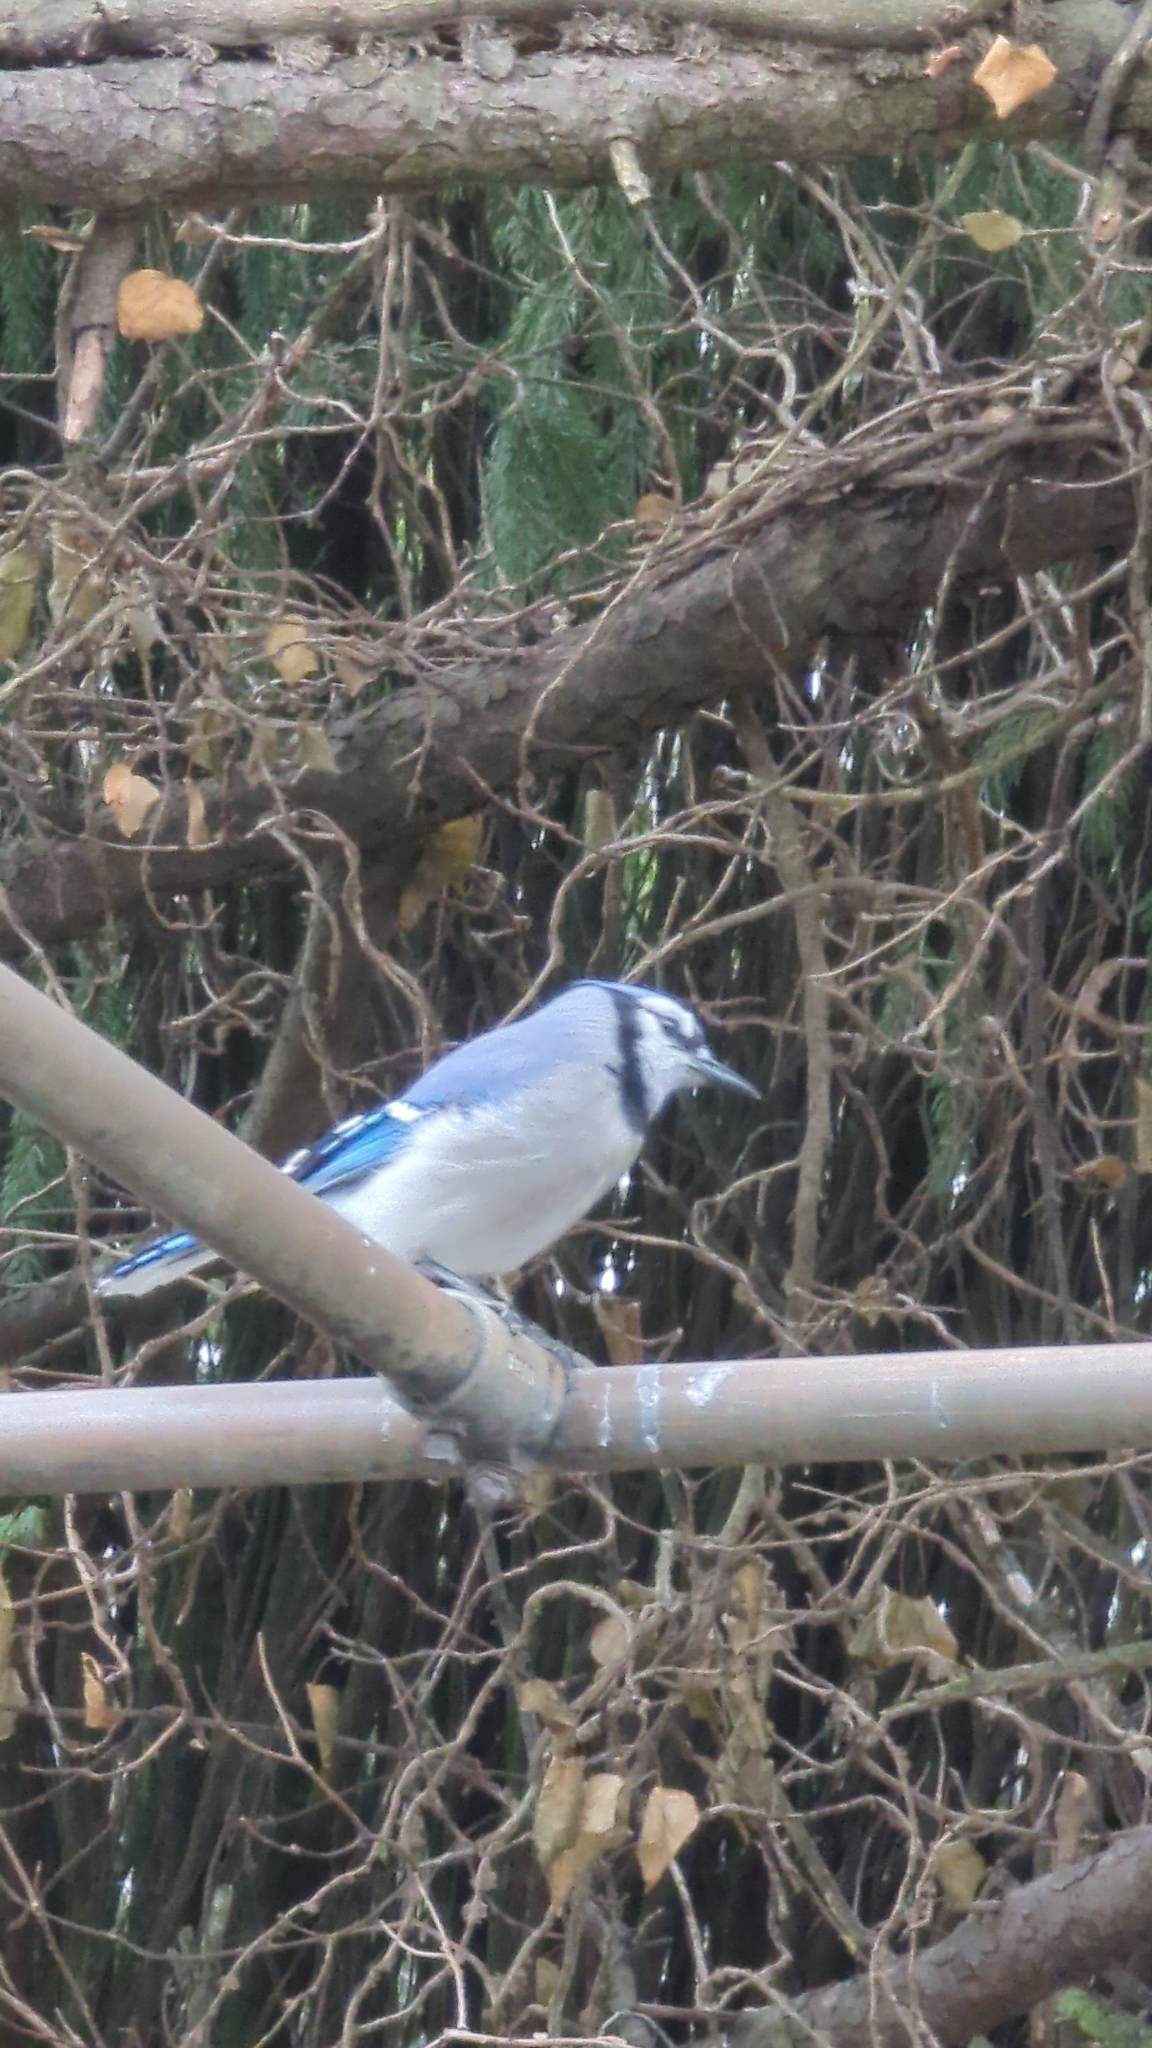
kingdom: Animalia
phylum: Chordata
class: Aves
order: Passeriformes
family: Corvidae
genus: Cyanocitta
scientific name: Cyanocitta cristata
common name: Blue jay
